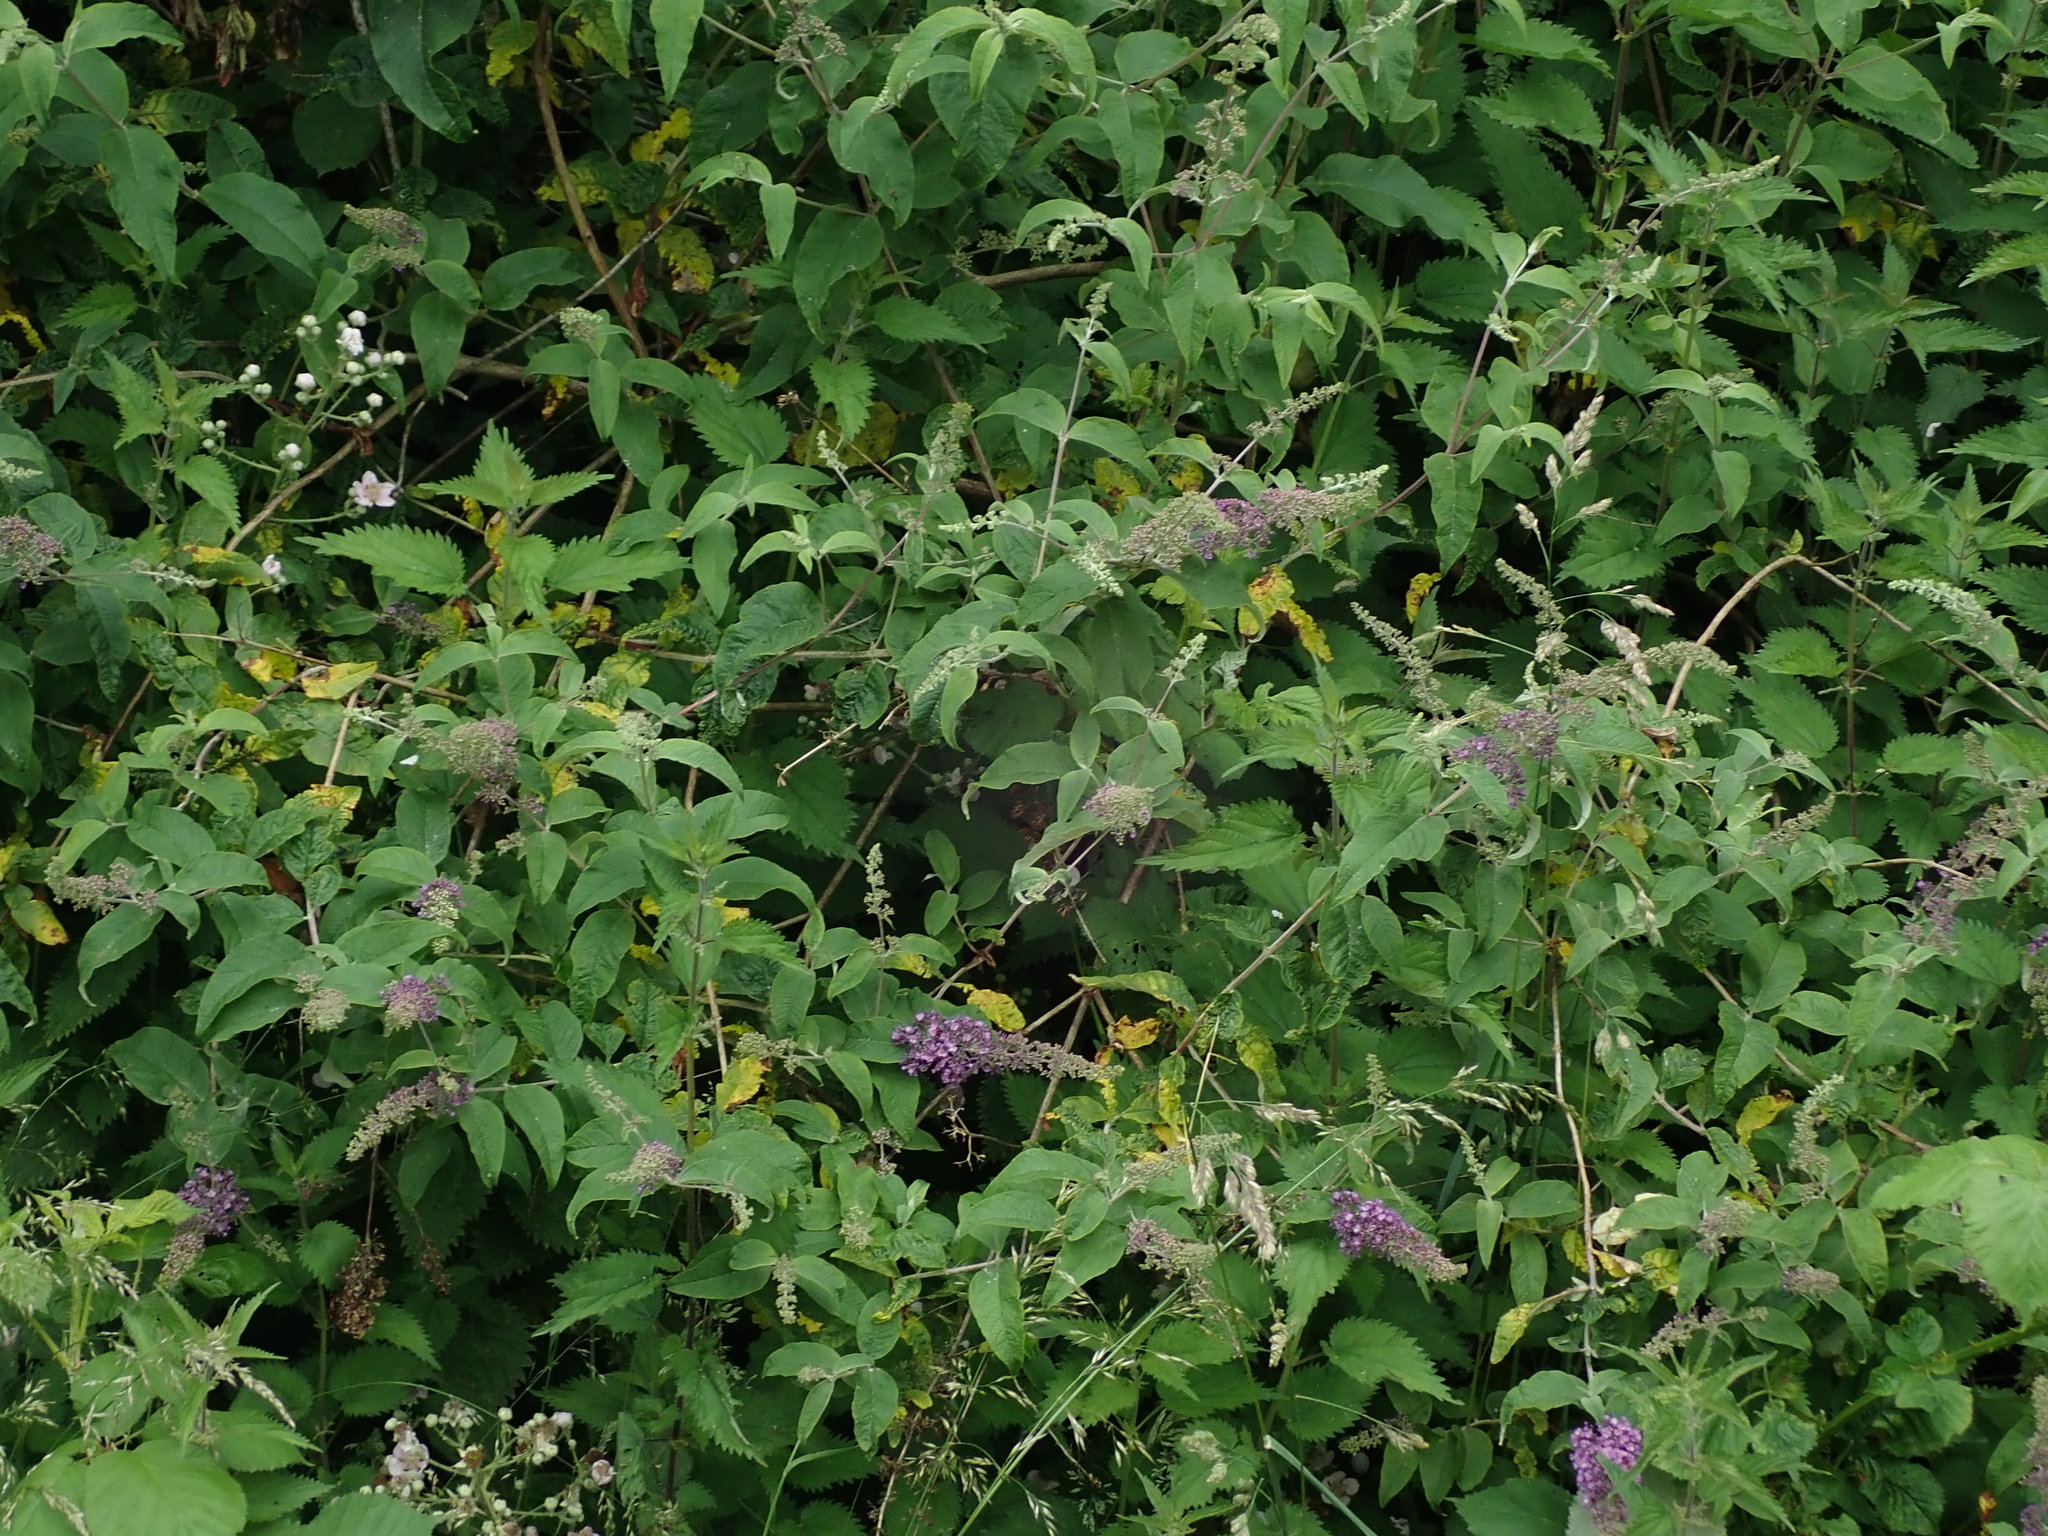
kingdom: Plantae
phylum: Tracheophyta
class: Magnoliopsida
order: Lamiales
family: Scrophulariaceae
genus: Buddleja
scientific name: Buddleja davidii
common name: Butterfly-bush
